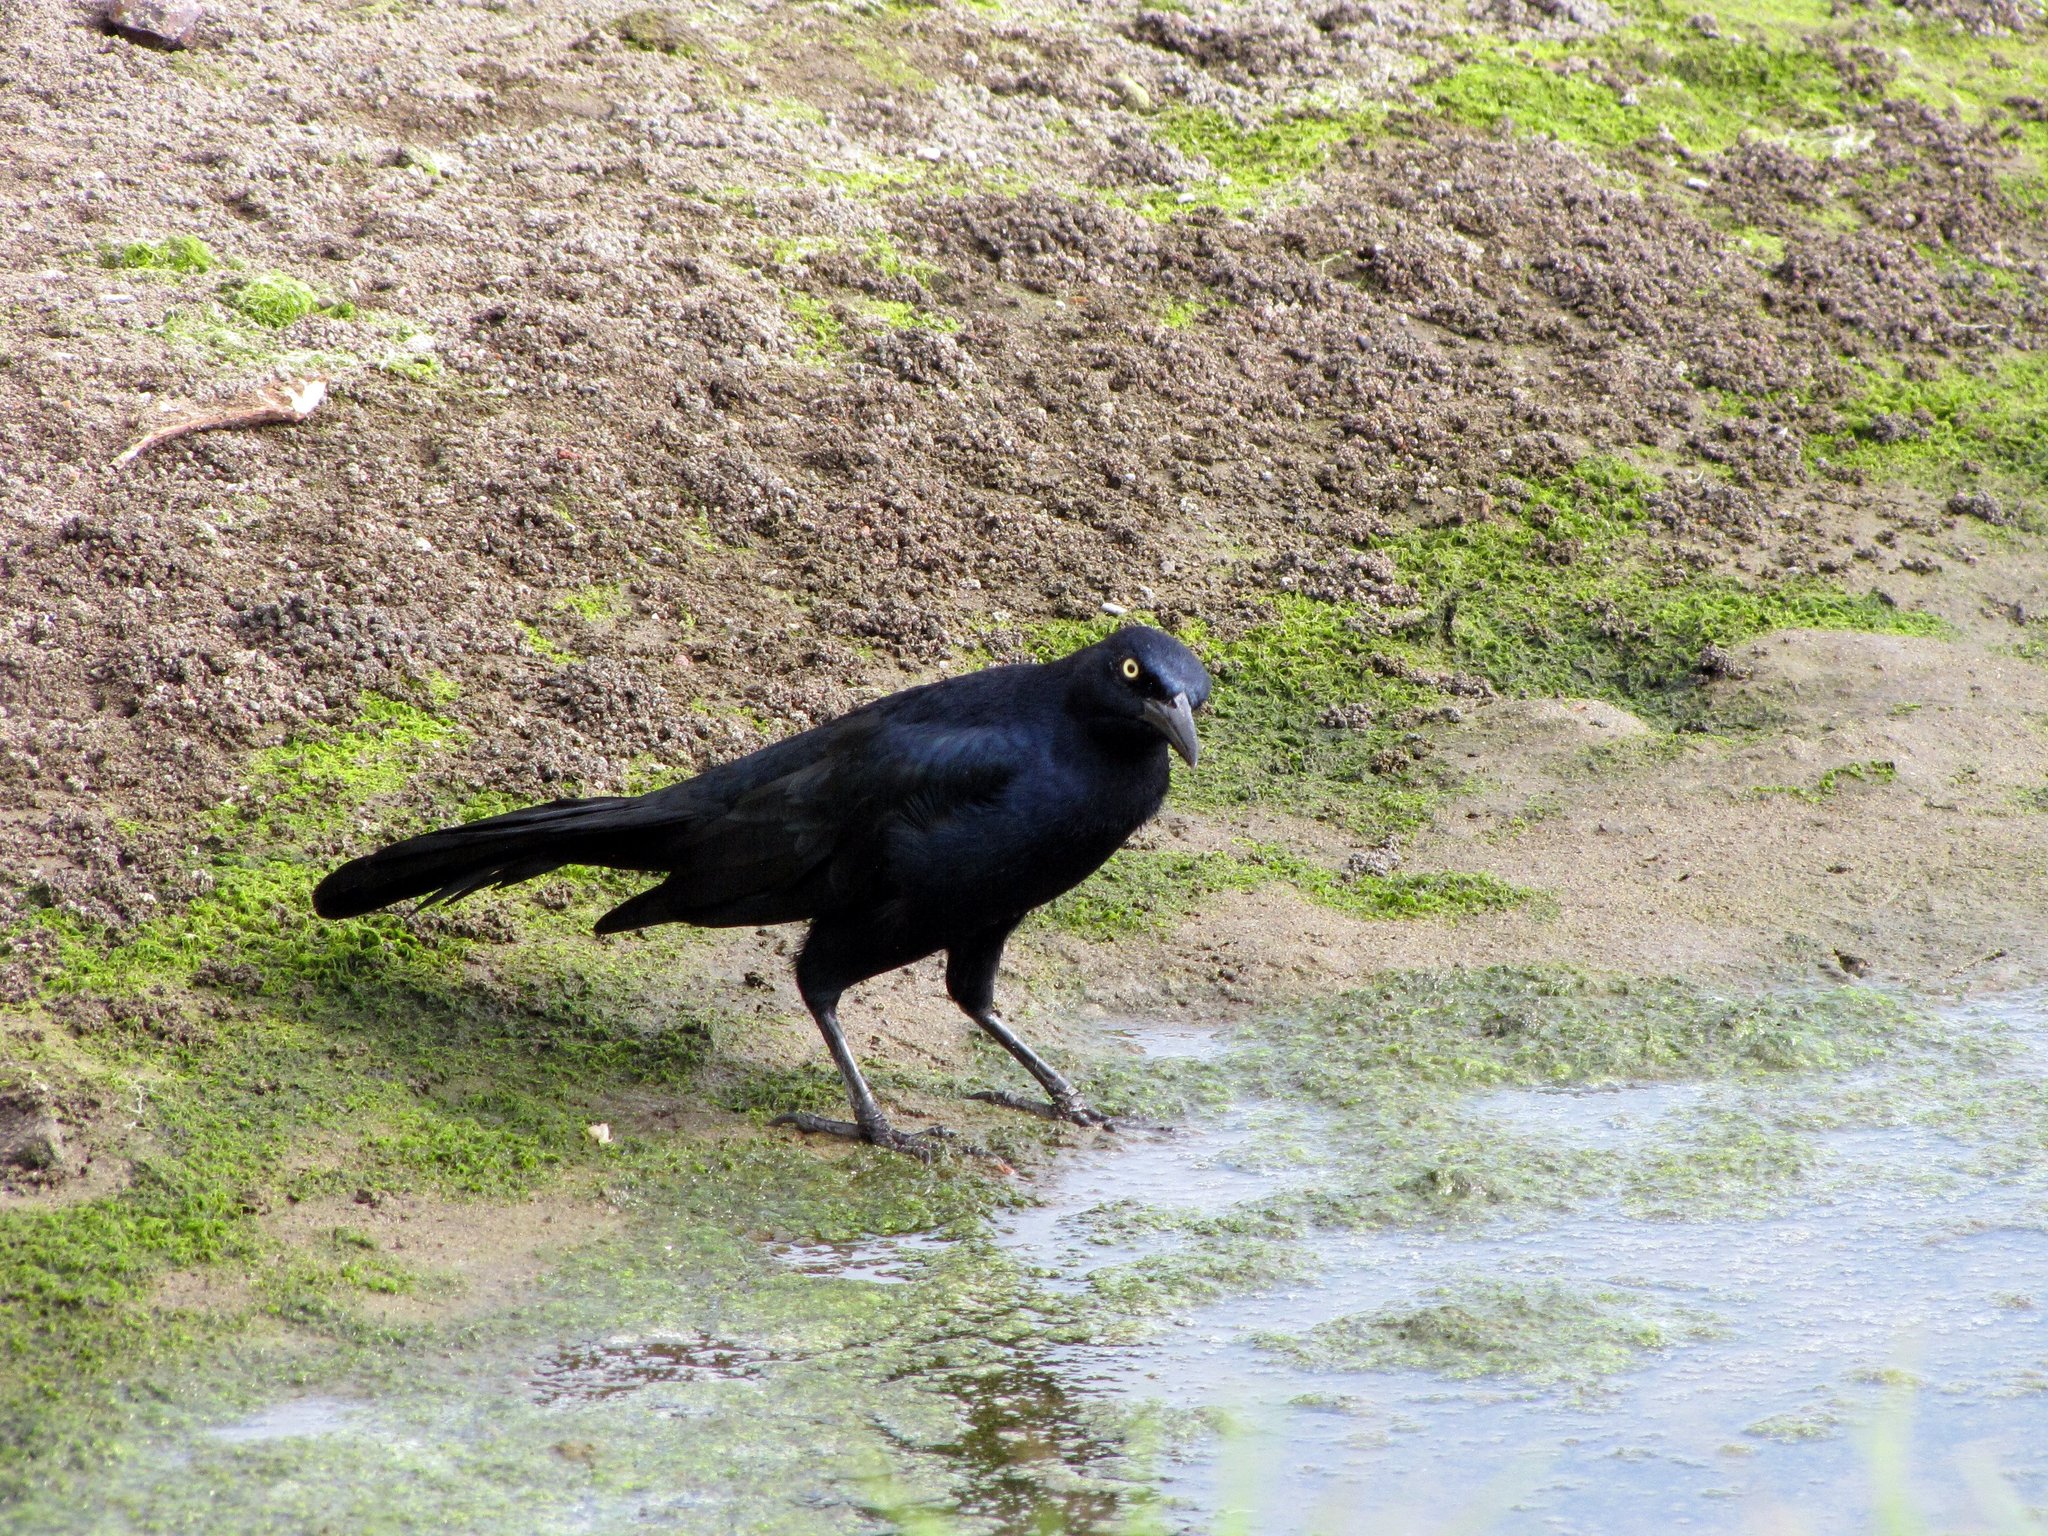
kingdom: Animalia
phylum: Chordata
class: Aves
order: Passeriformes
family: Icteridae
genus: Quiscalus
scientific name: Quiscalus mexicanus
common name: Great-tailed grackle
